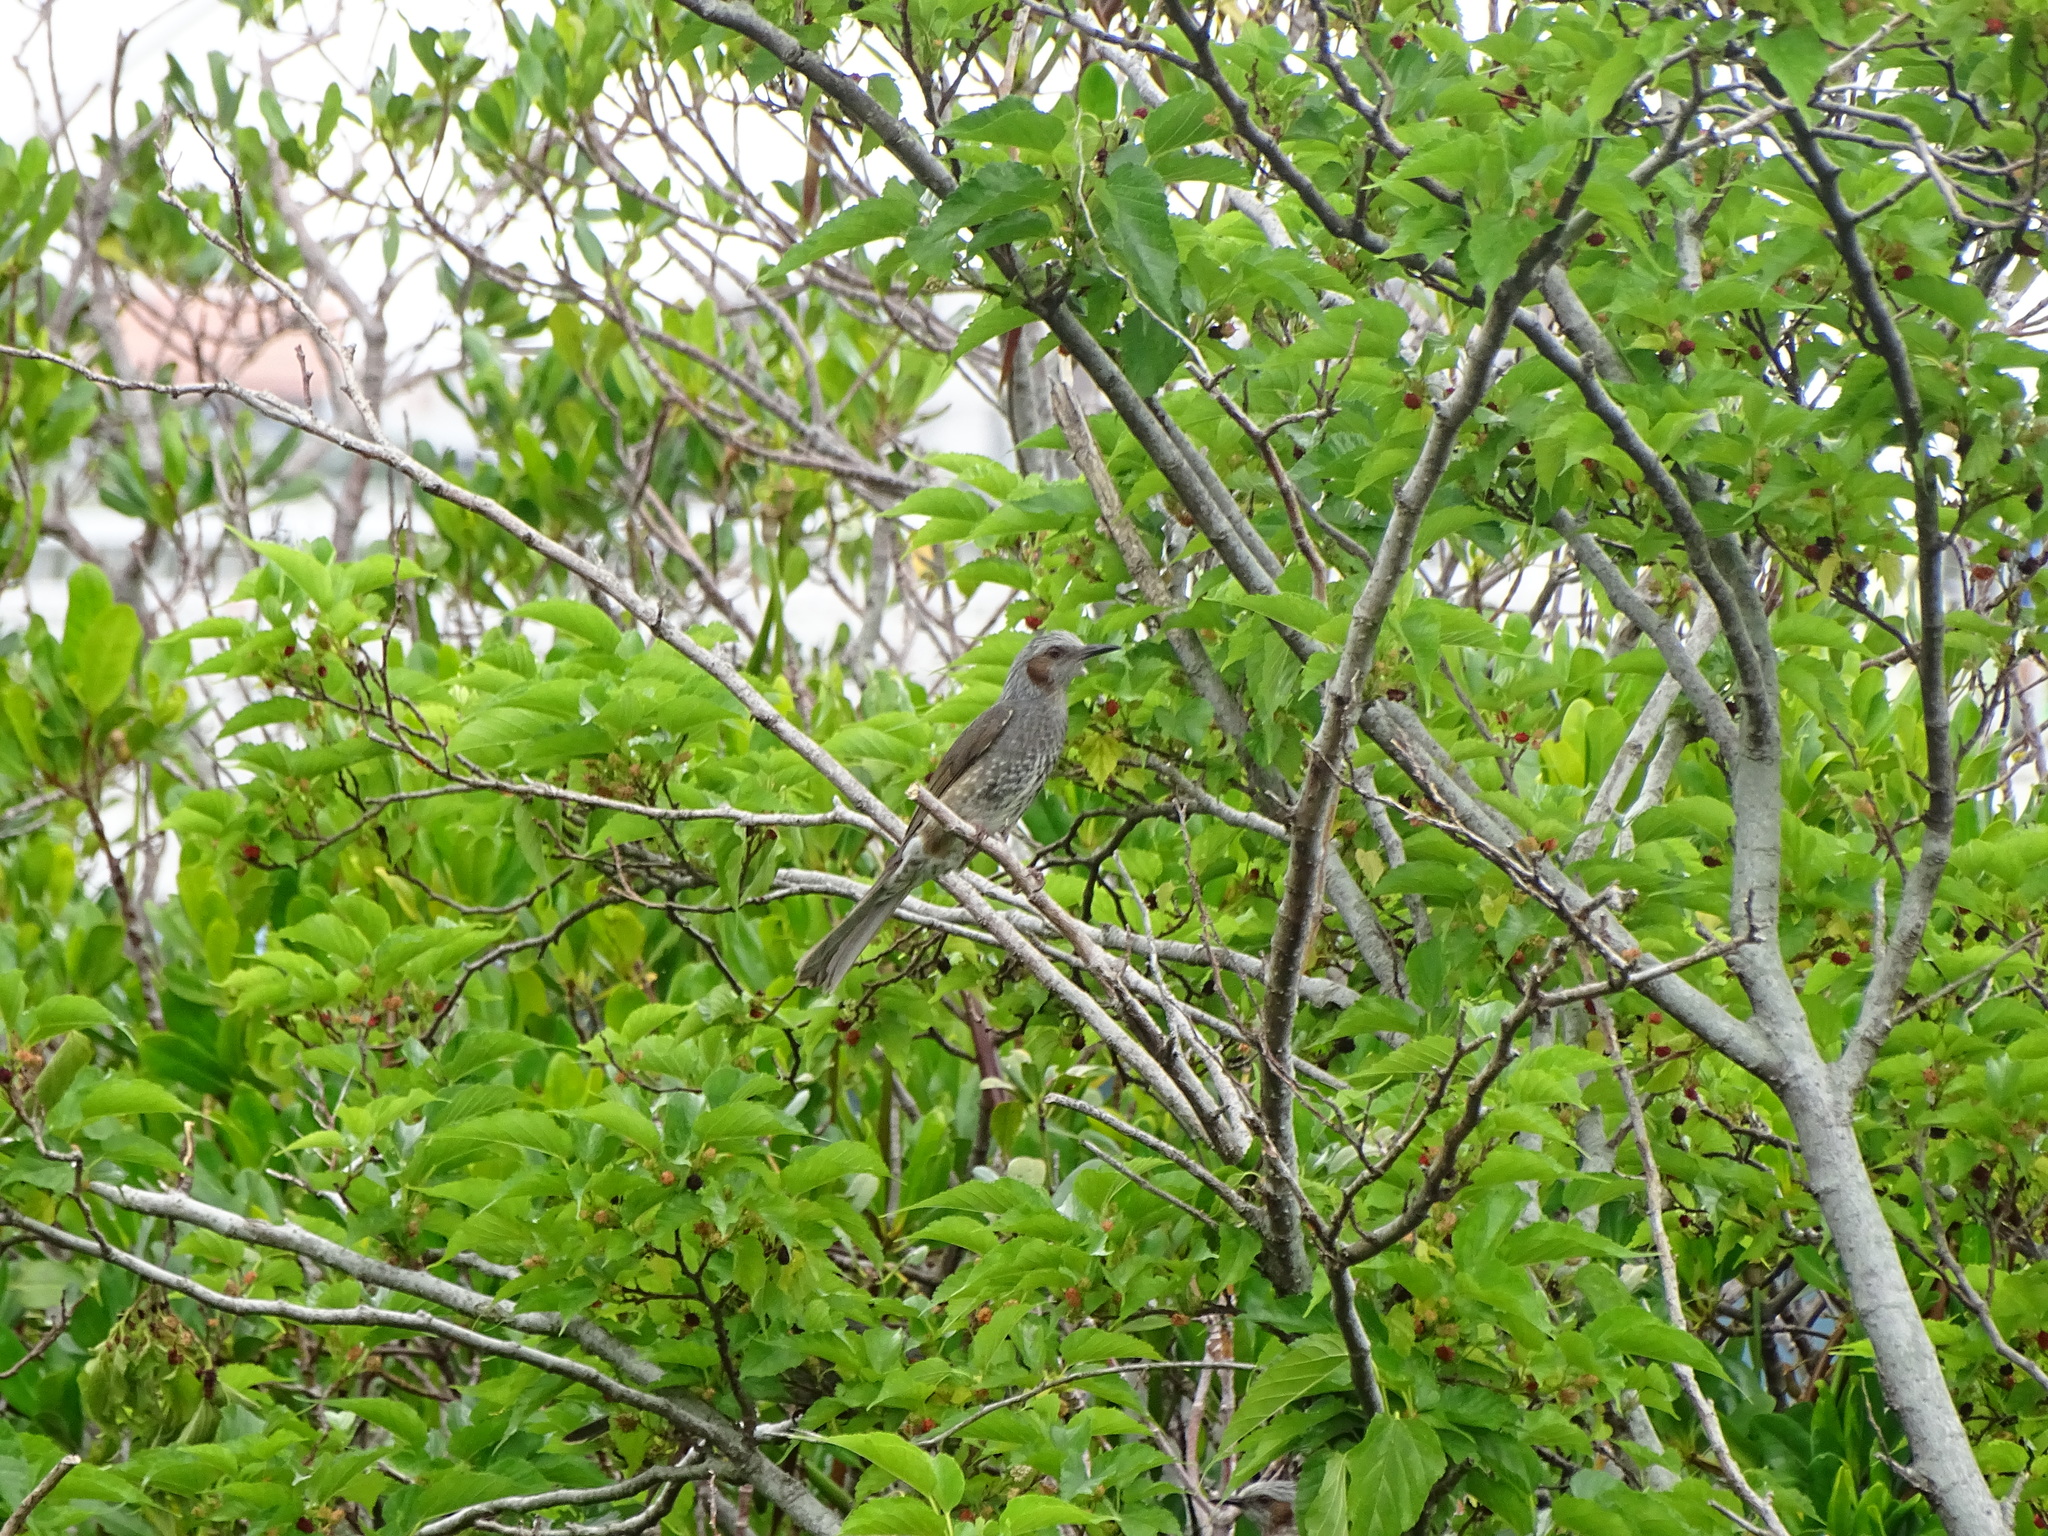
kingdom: Animalia
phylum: Chordata
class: Aves
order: Passeriformes
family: Pycnonotidae
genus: Hypsipetes
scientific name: Hypsipetes amaurotis
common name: Brown-eared bulbul
